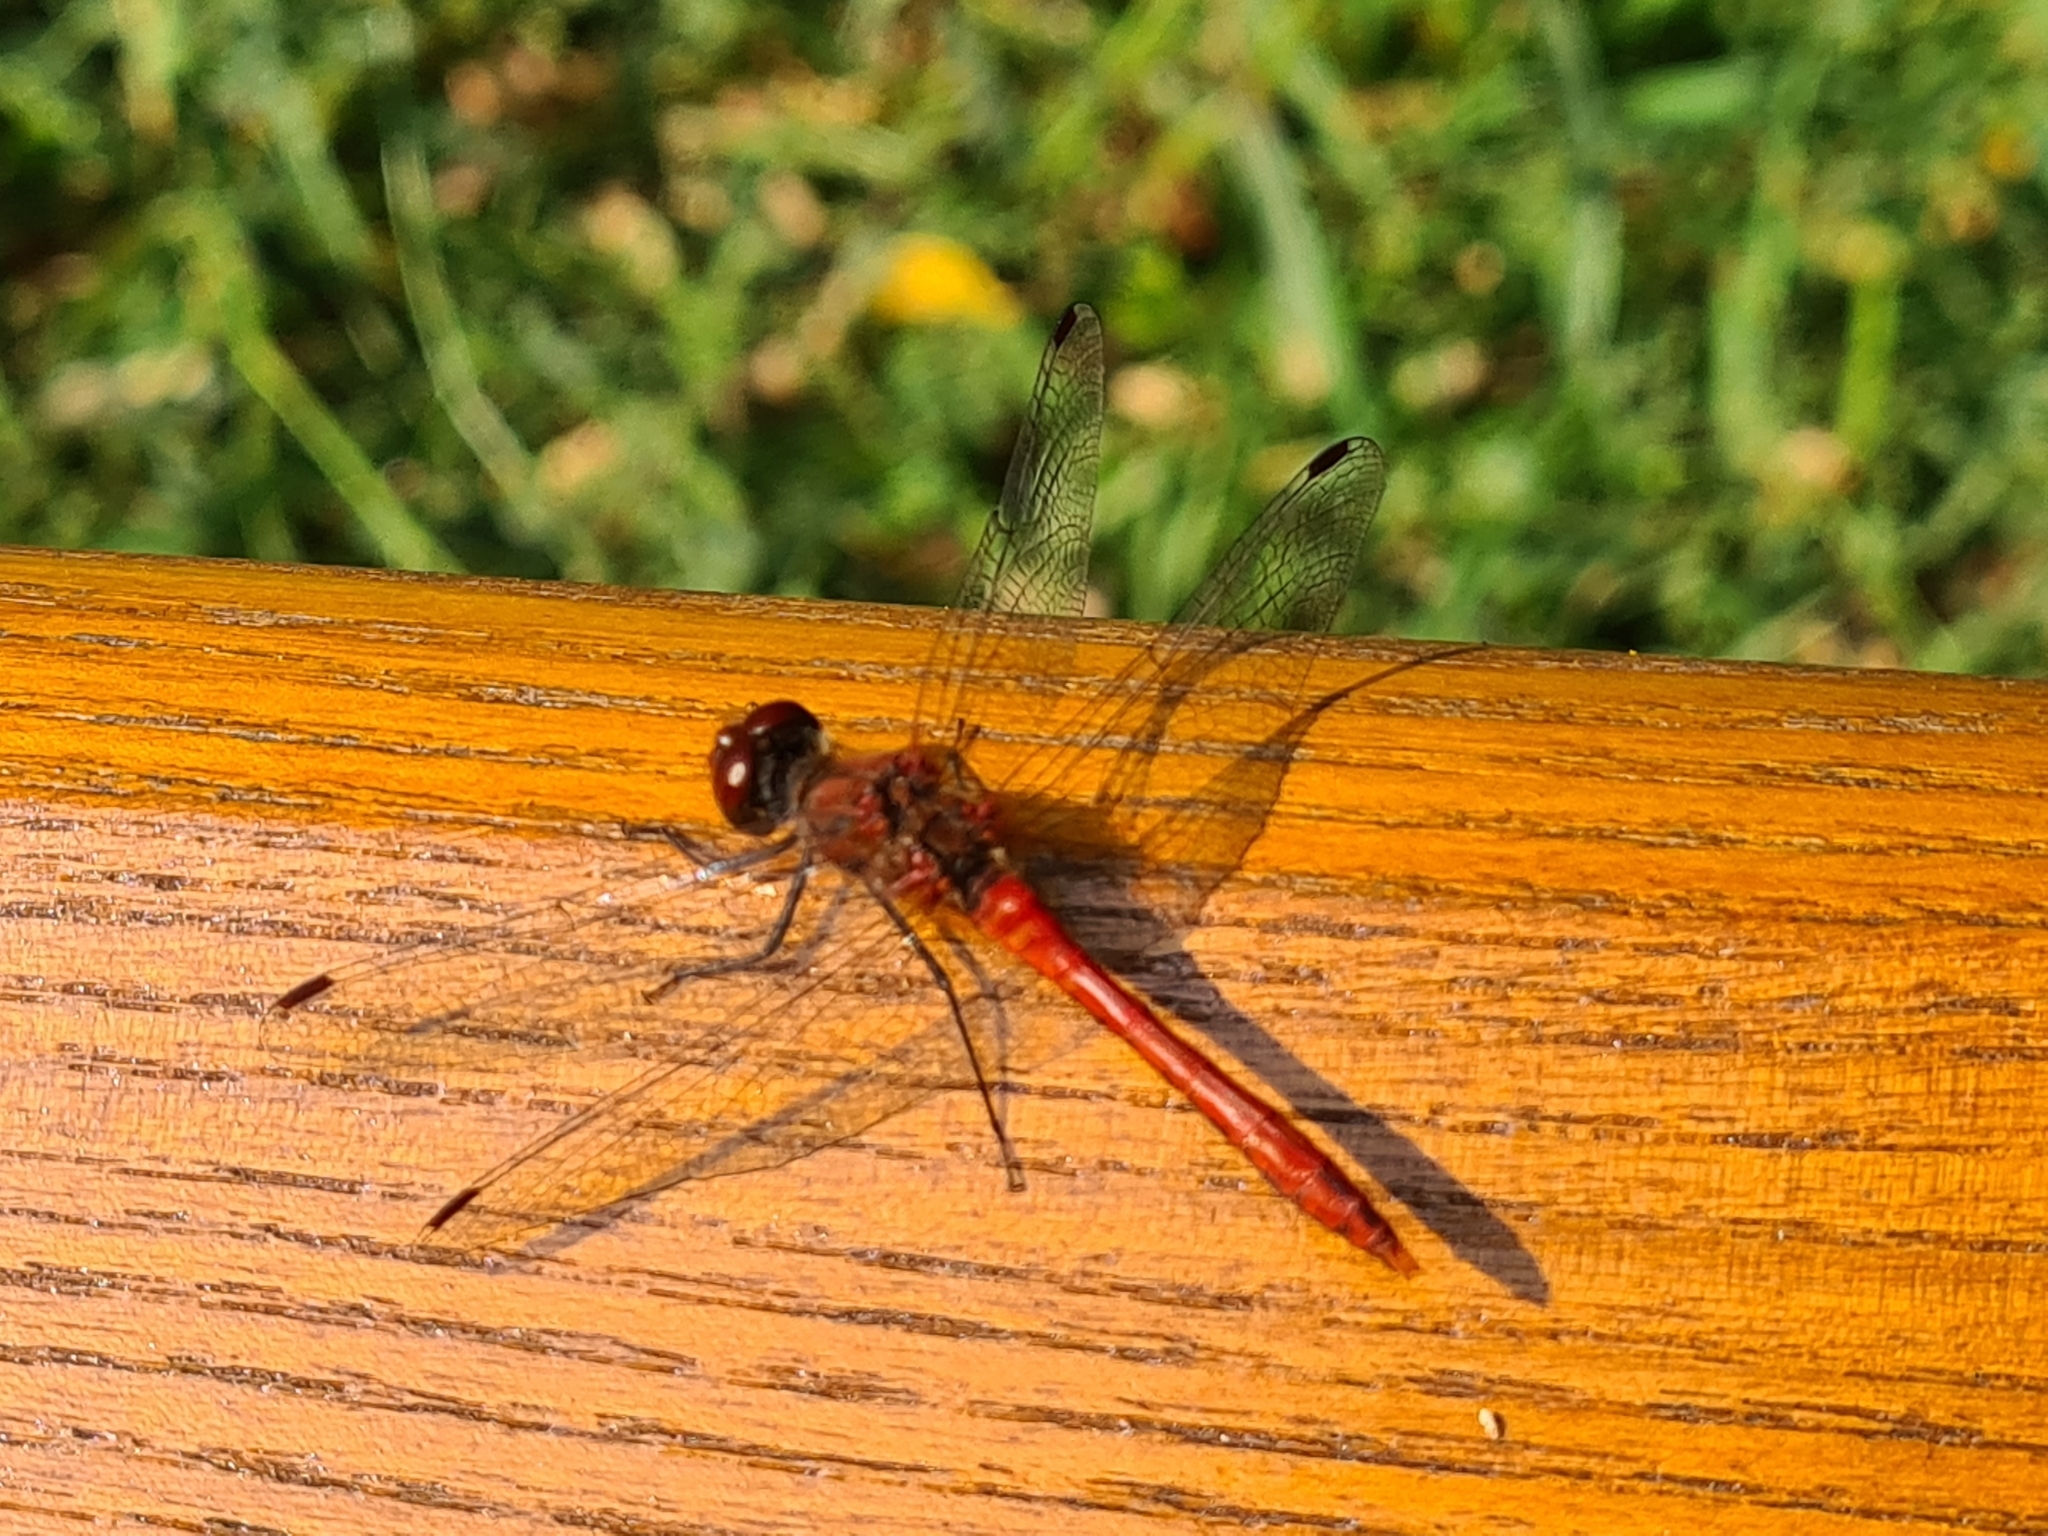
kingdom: Animalia
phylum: Arthropoda
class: Insecta
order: Odonata
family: Libellulidae
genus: Sympetrum
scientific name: Sympetrum sanguineum
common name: Ruddy darter
